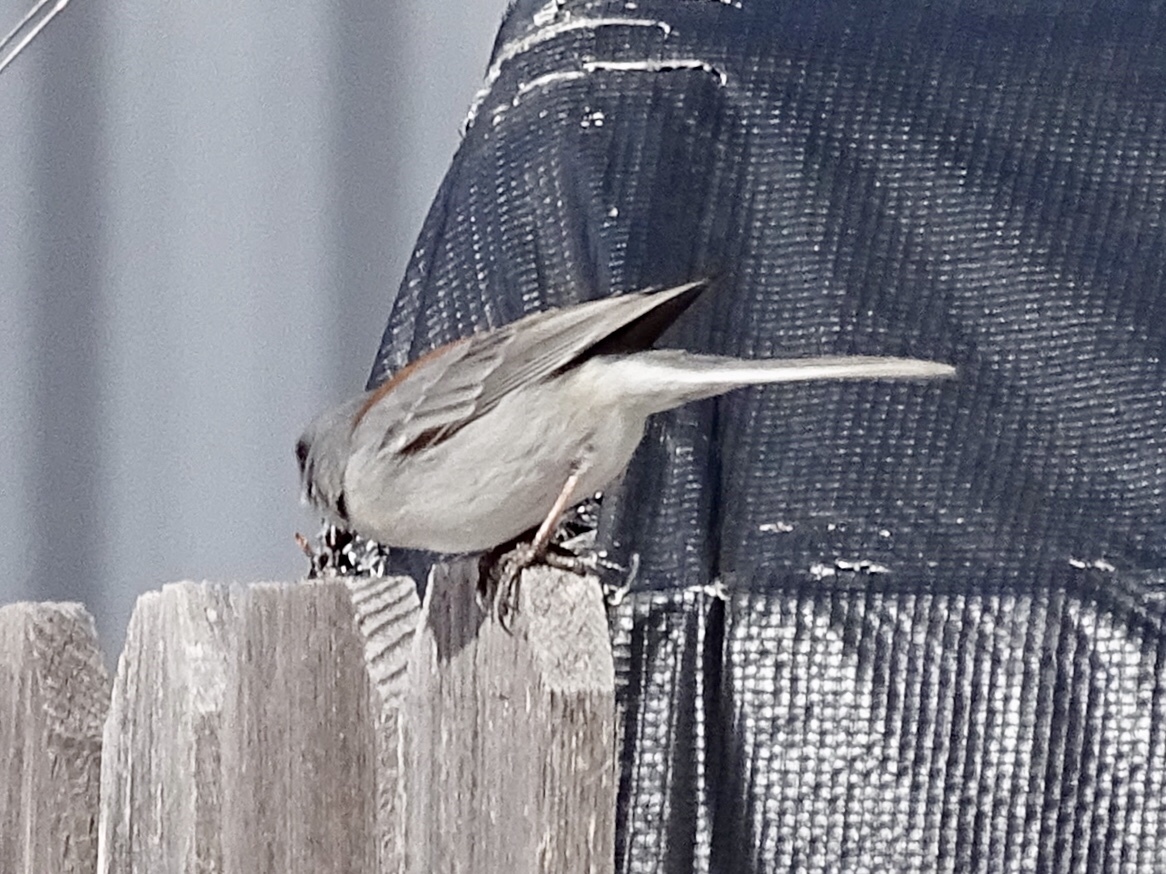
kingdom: Animalia
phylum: Chordata
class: Aves
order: Passeriformes
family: Passerellidae
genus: Junco
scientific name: Junco hyemalis
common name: Dark-eyed junco
